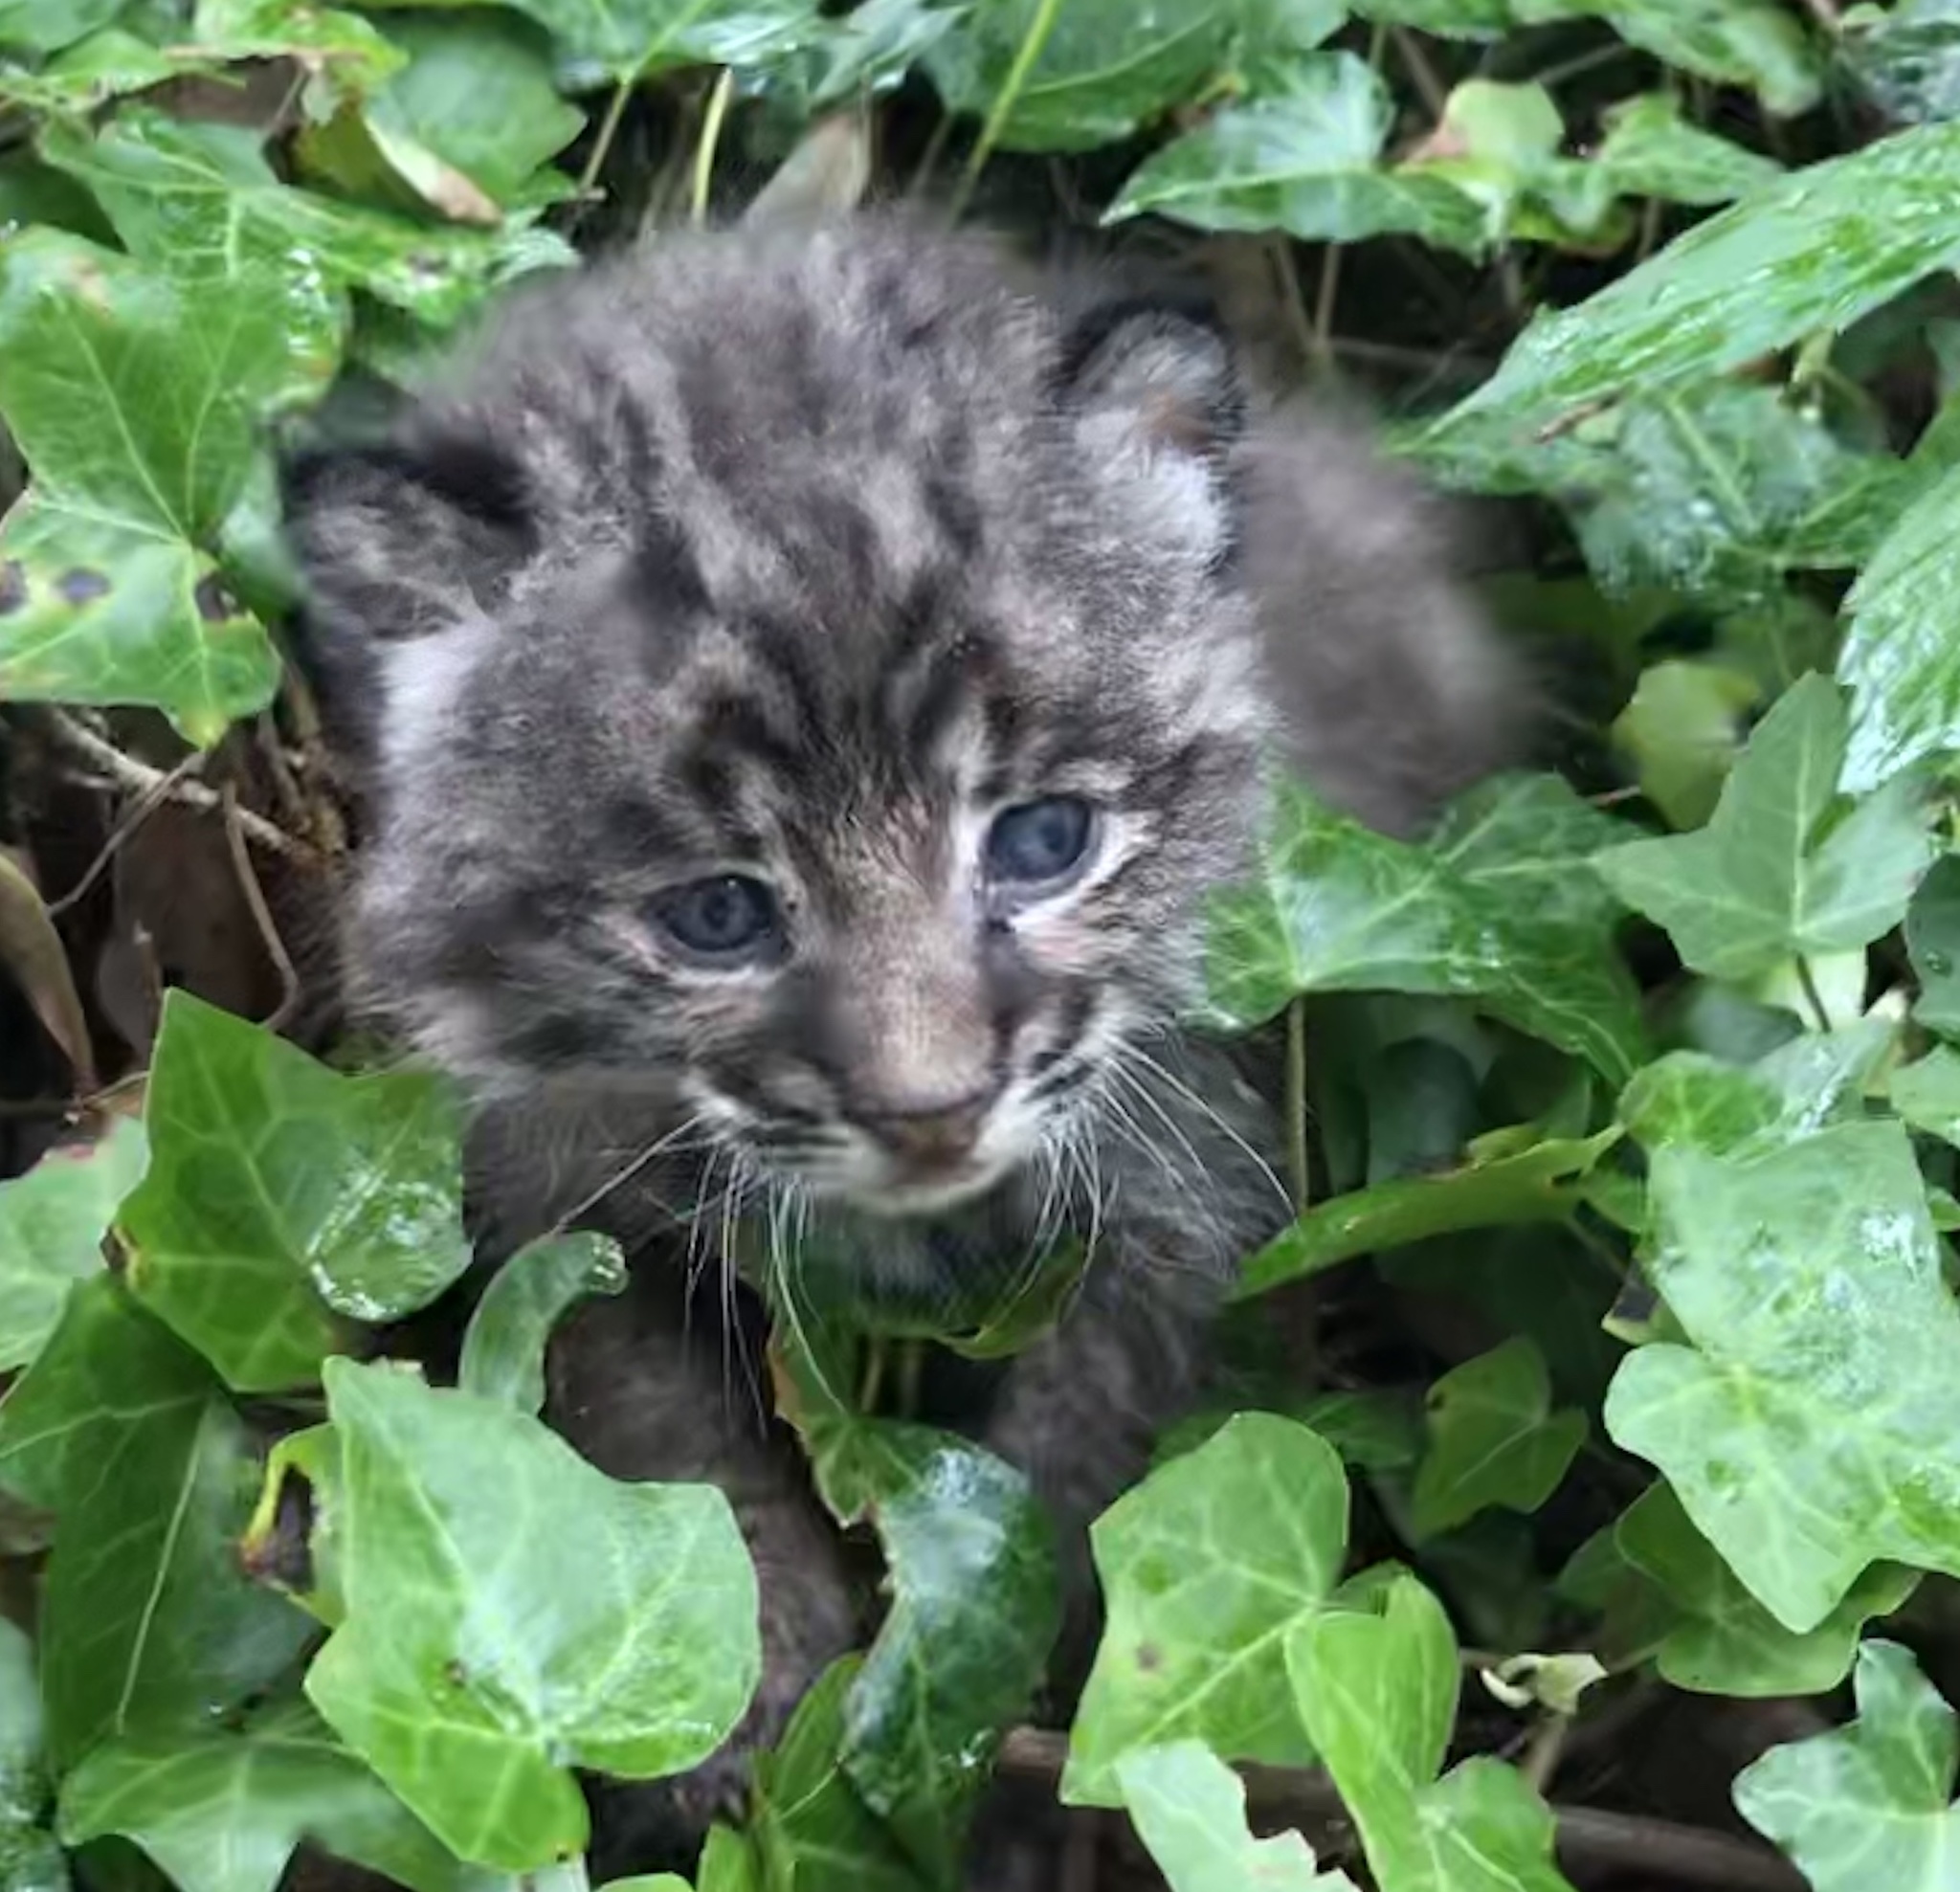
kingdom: Animalia
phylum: Chordata
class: Mammalia
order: Carnivora
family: Felidae
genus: Lynx
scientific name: Lynx rufus
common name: Bobcat
